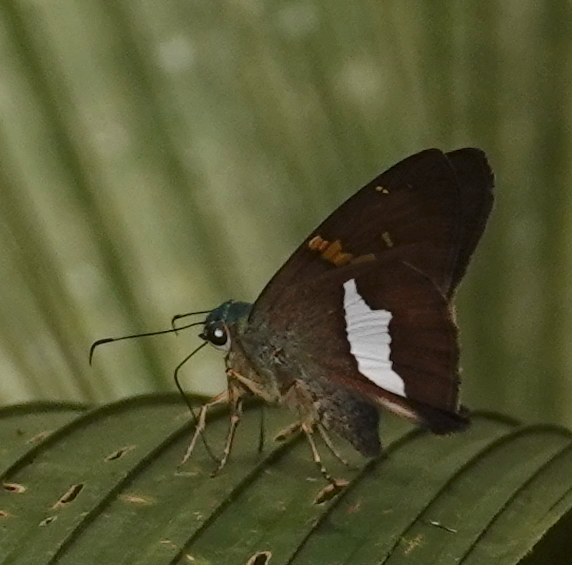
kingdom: Animalia
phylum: Arthropoda
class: Insecta
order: Lepidoptera
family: Hesperiidae
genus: Aguna
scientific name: Aguna
